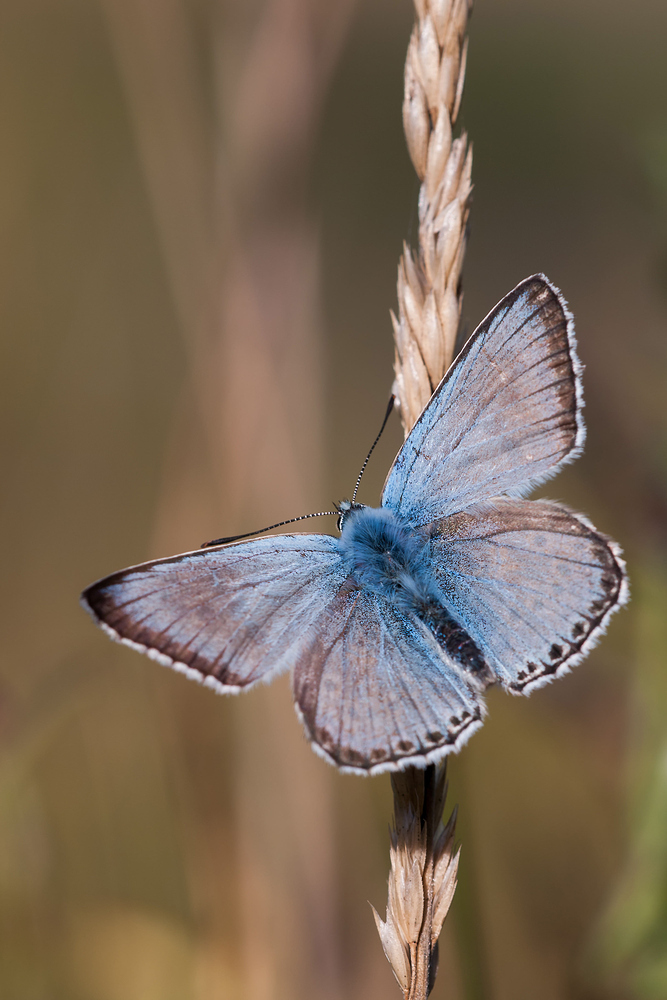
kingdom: Animalia
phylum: Arthropoda
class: Insecta
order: Lepidoptera
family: Lycaenidae
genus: Lysandra
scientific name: Lysandra coridon
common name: Chalkhill blue
